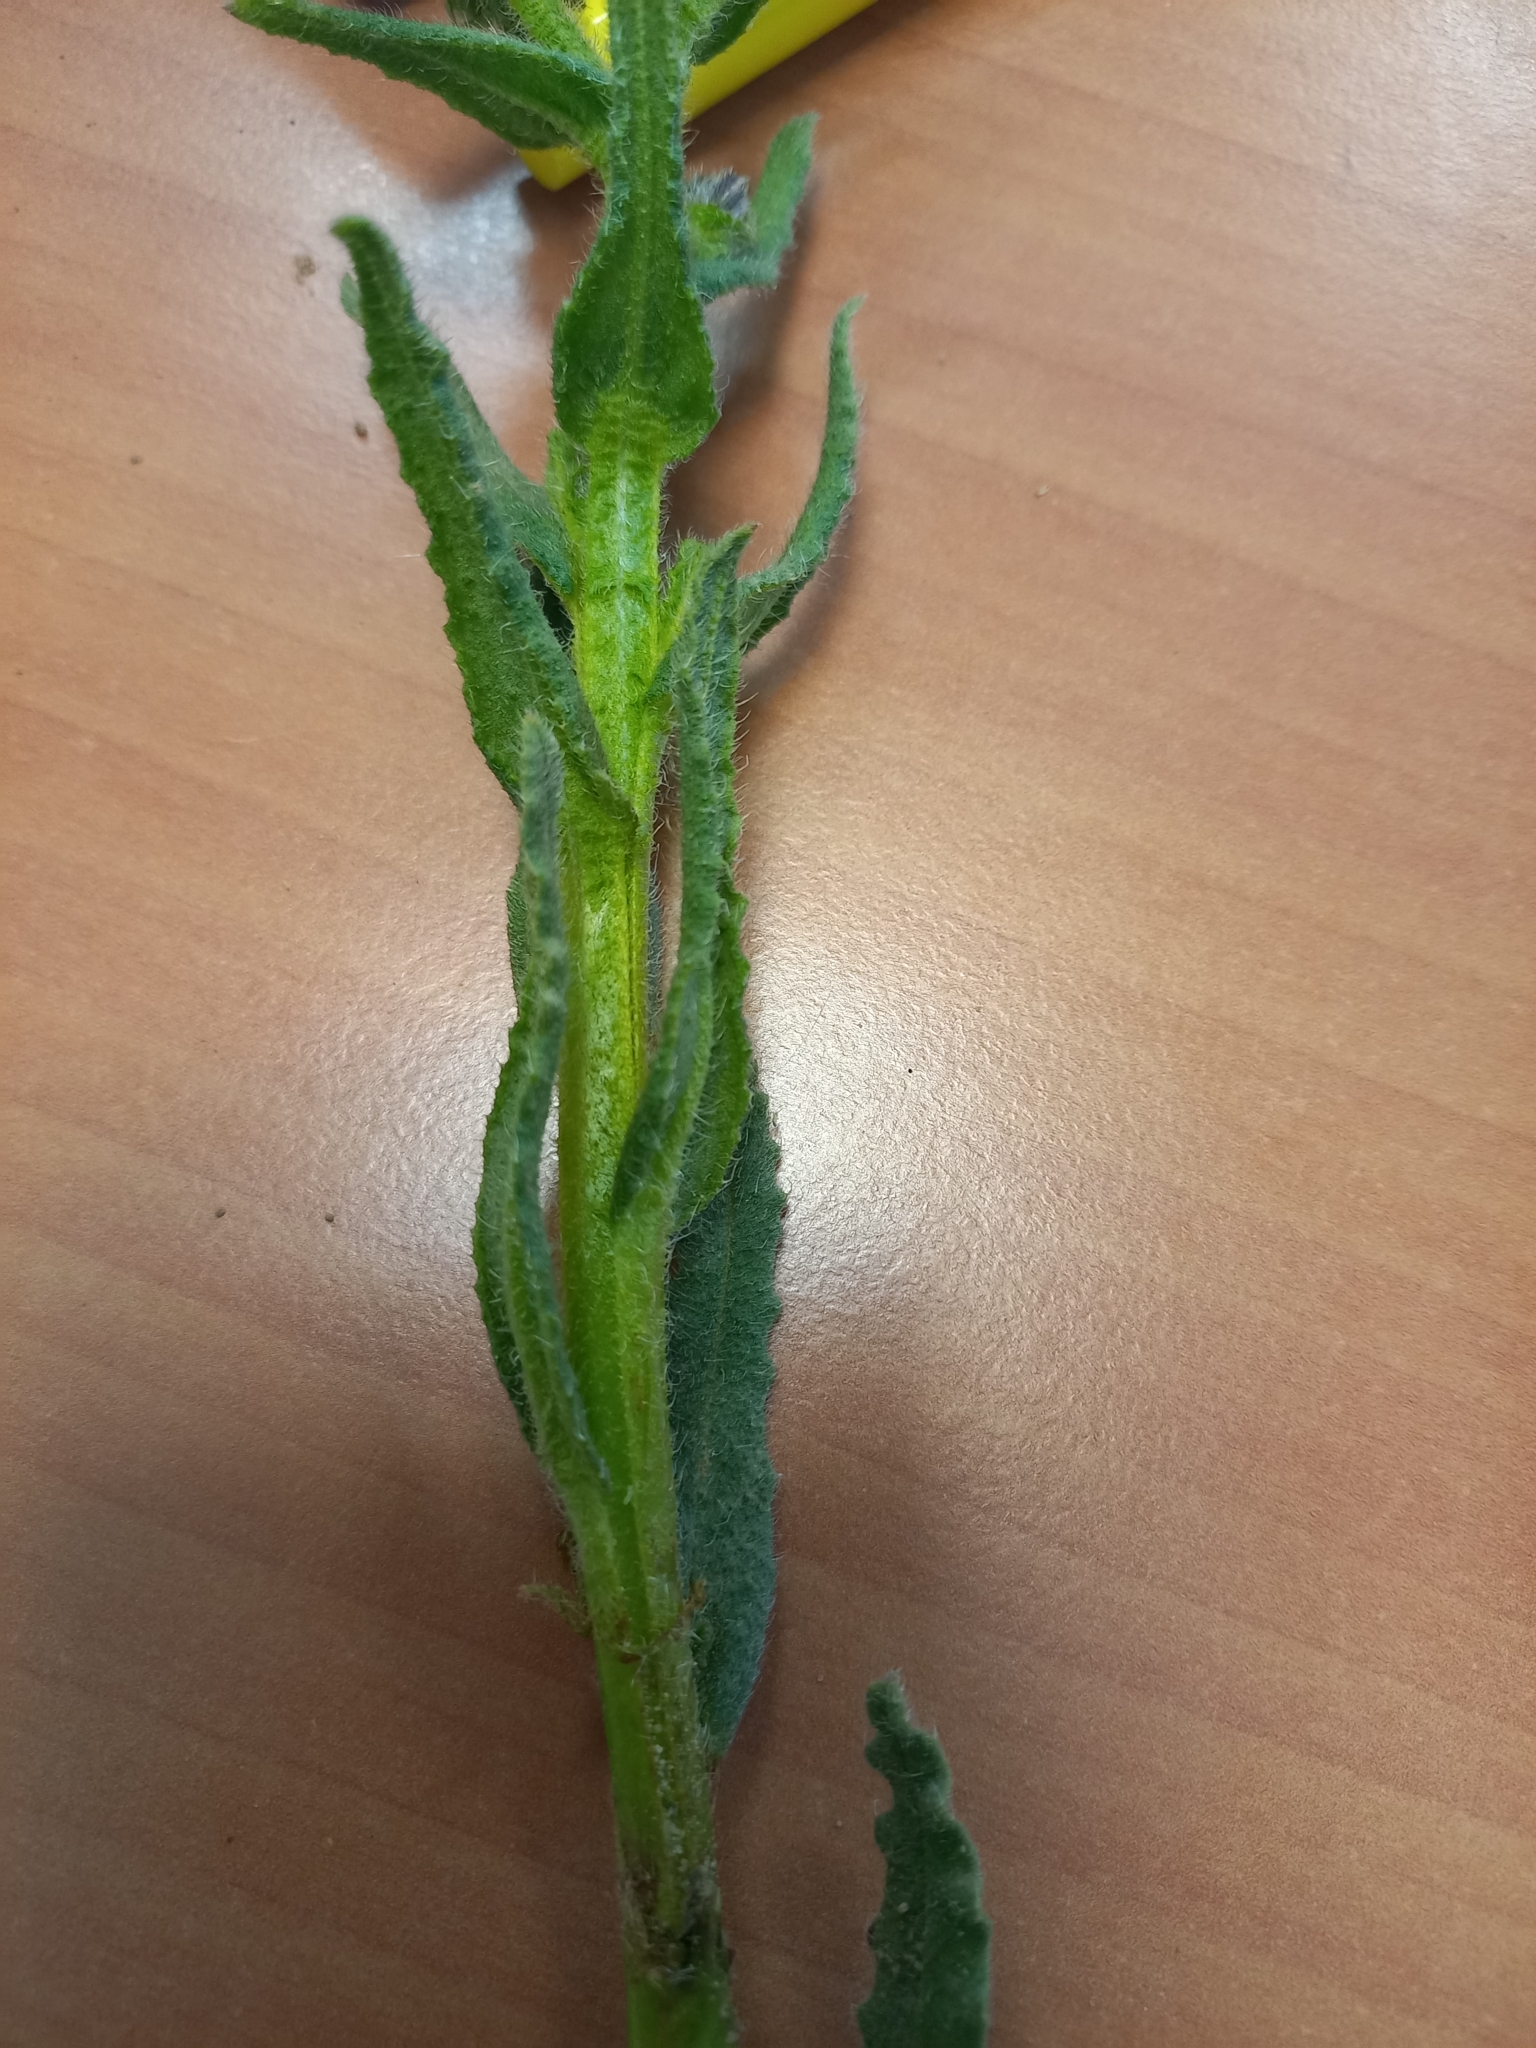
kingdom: Plantae
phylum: Tracheophyta
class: Magnoliopsida
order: Boraginales
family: Boraginaceae
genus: Lycopsis
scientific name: Lycopsis arvensis
